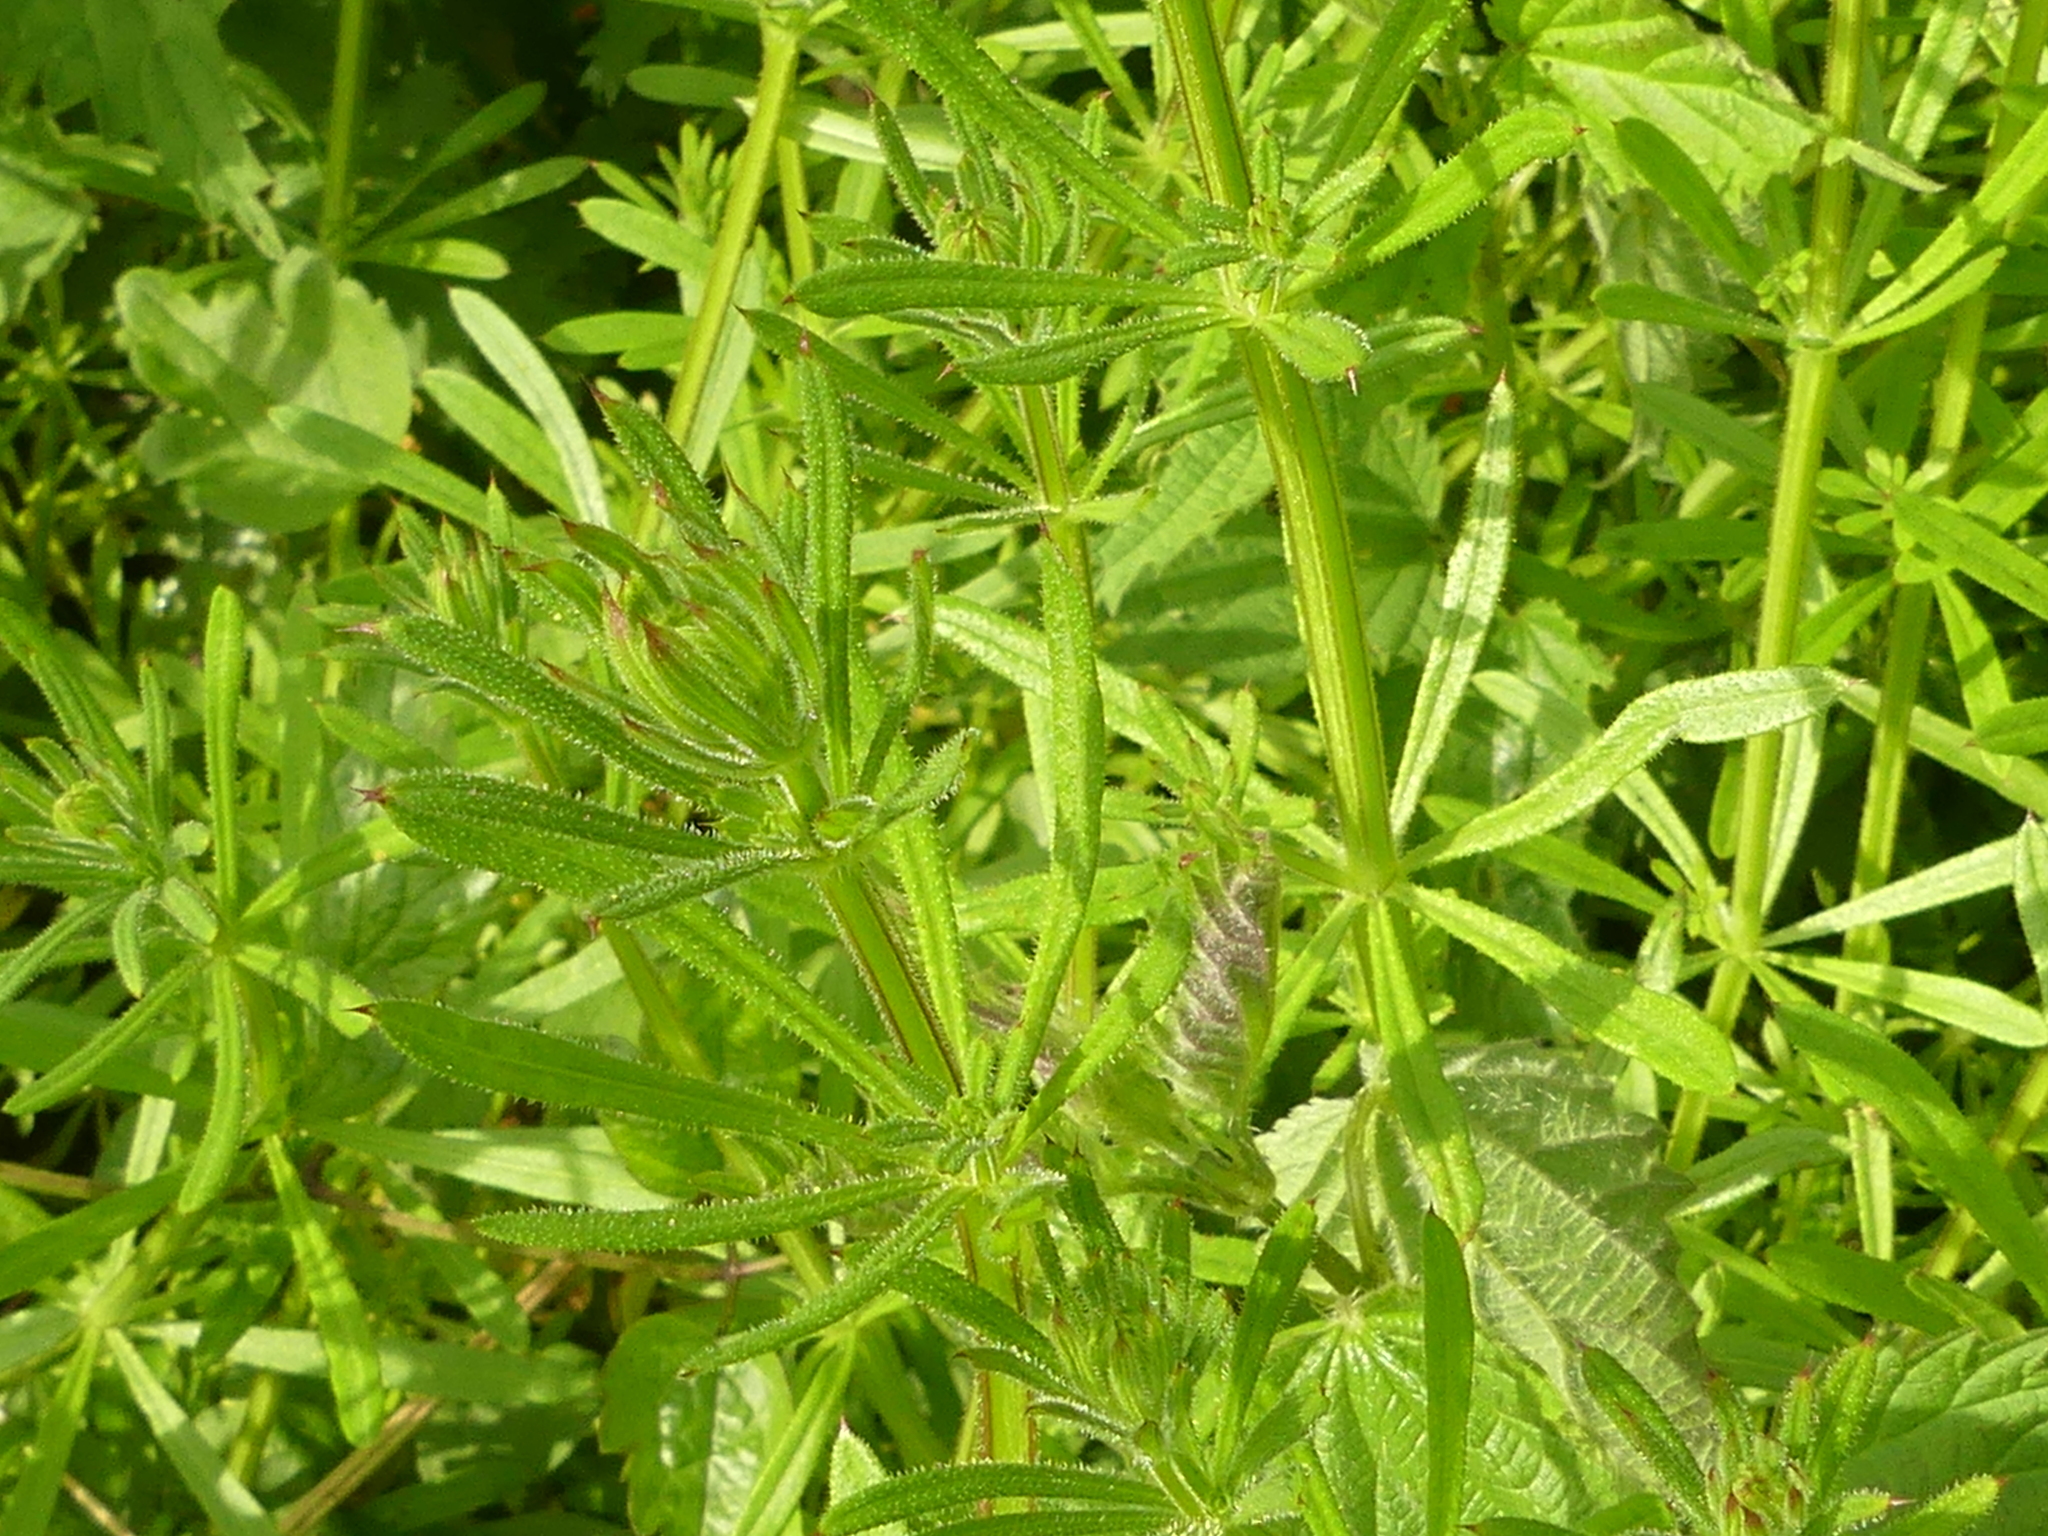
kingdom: Plantae
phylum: Tracheophyta
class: Magnoliopsida
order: Gentianales
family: Rubiaceae
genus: Galium
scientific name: Galium aparine
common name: Cleavers
